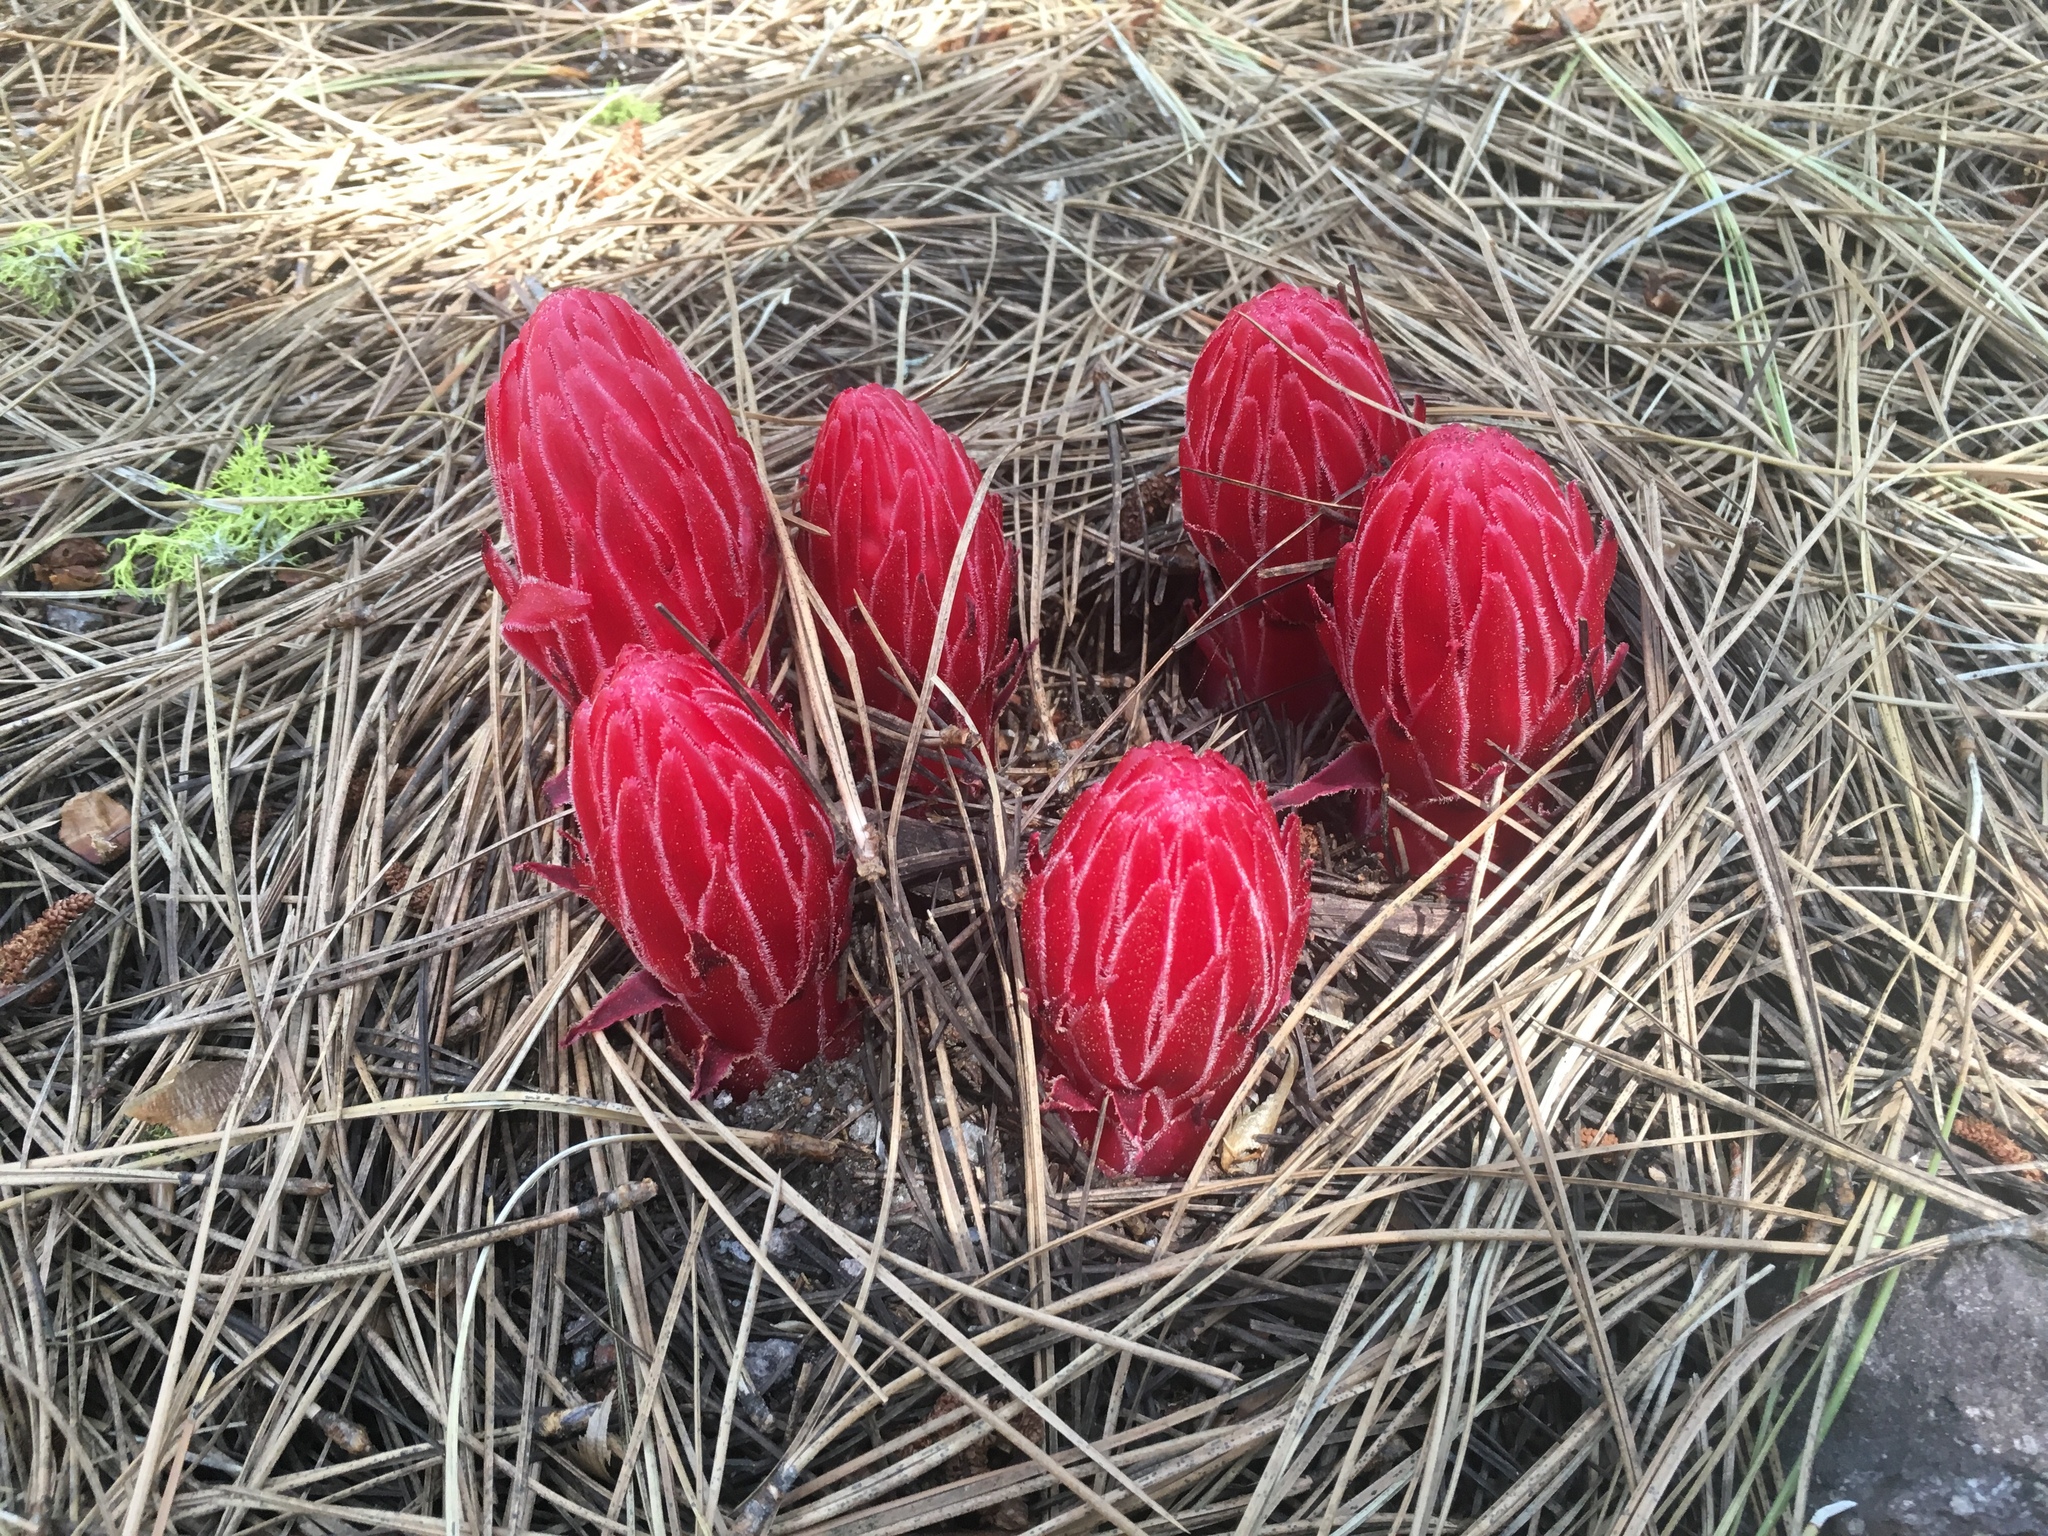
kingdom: Plantae
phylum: Tracheophyta
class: Magnoliopsida
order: Ericales
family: Ericaceae
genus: Sarcodes
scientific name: Sarcodes sanguinea
